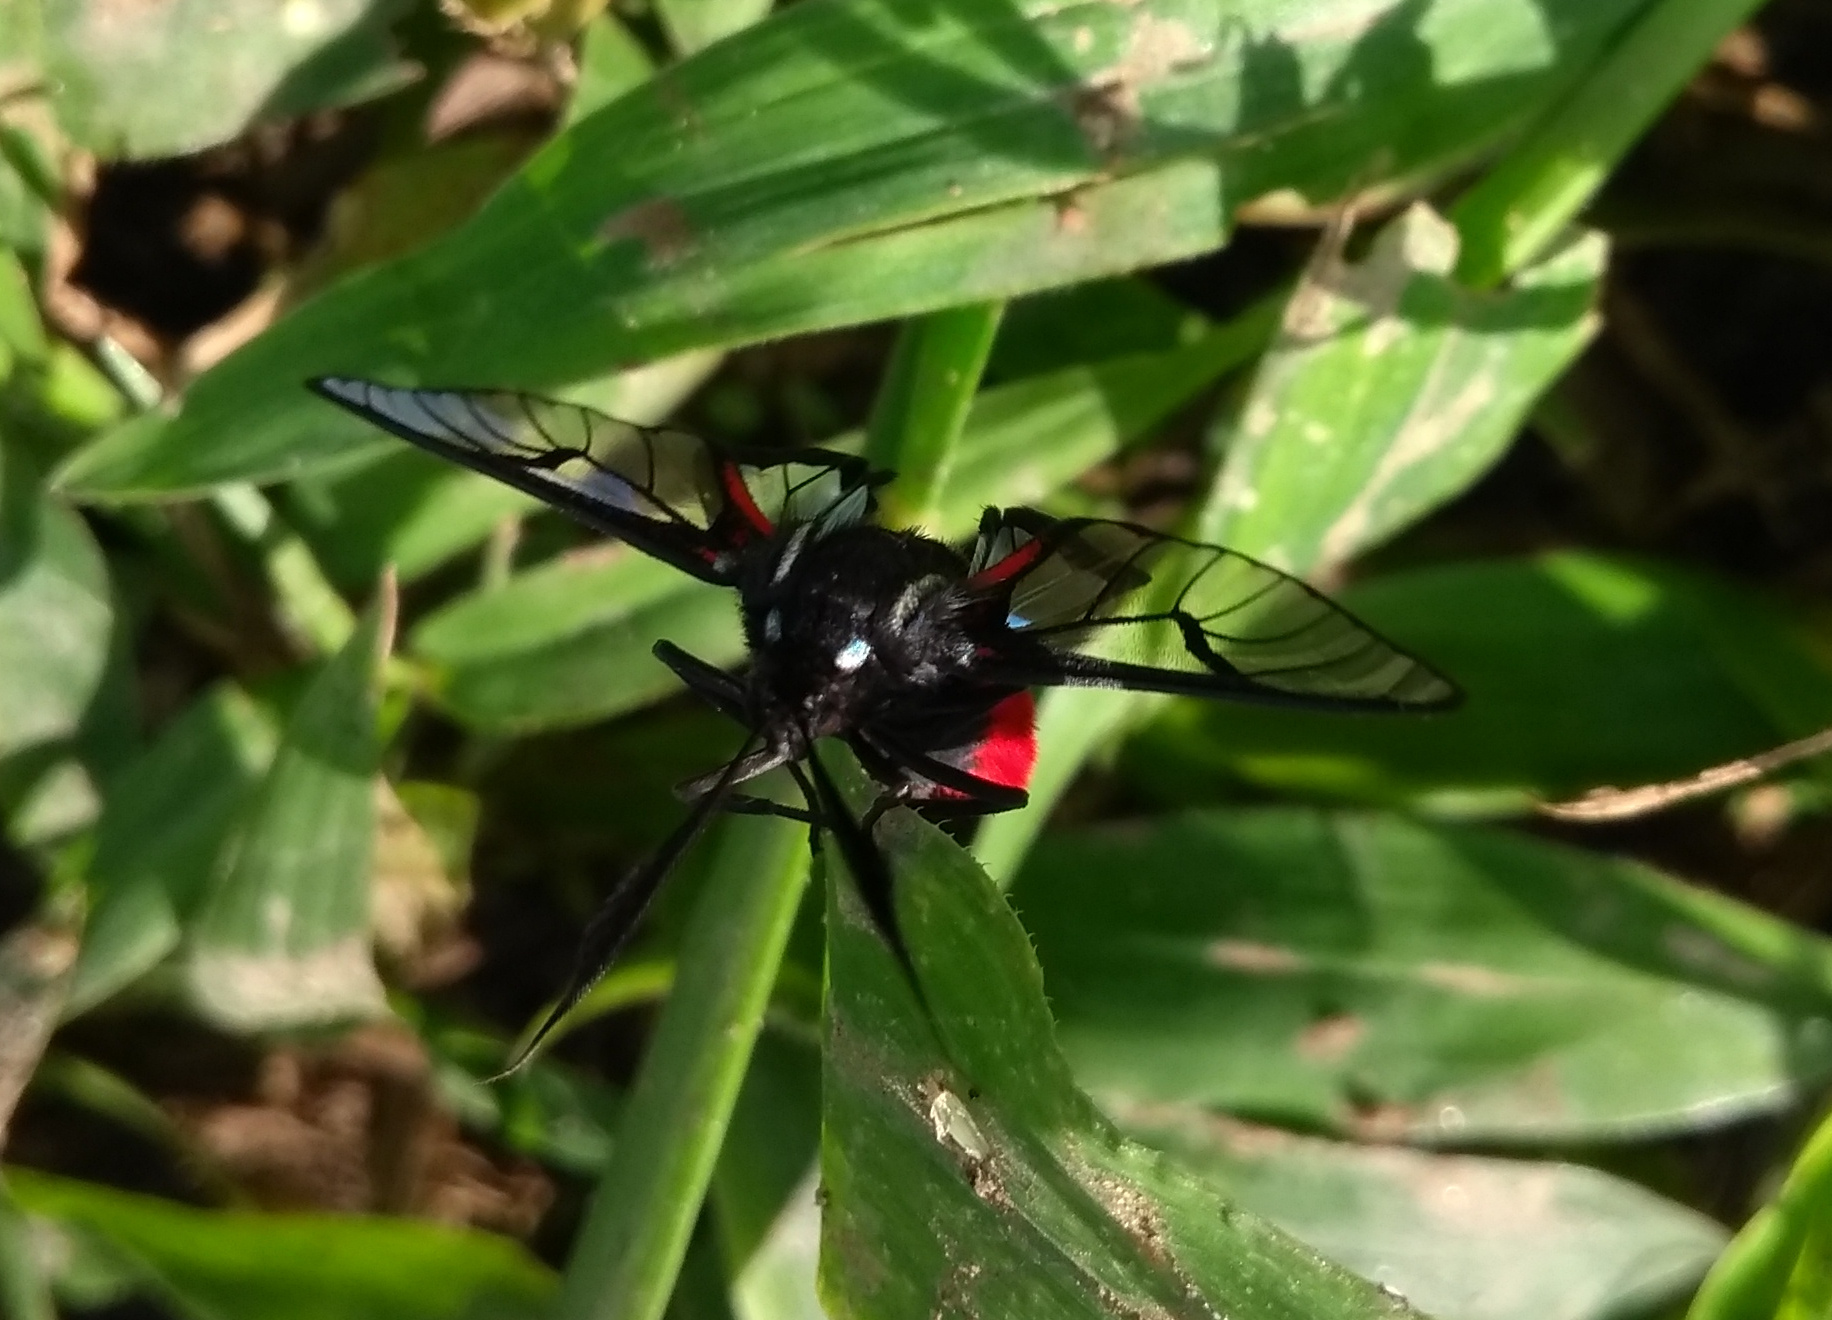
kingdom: Animalia
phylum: Arthropoda
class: Insecta
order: Lepidoptera
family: Erebidae
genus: Dinia
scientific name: Dinia eagrus
